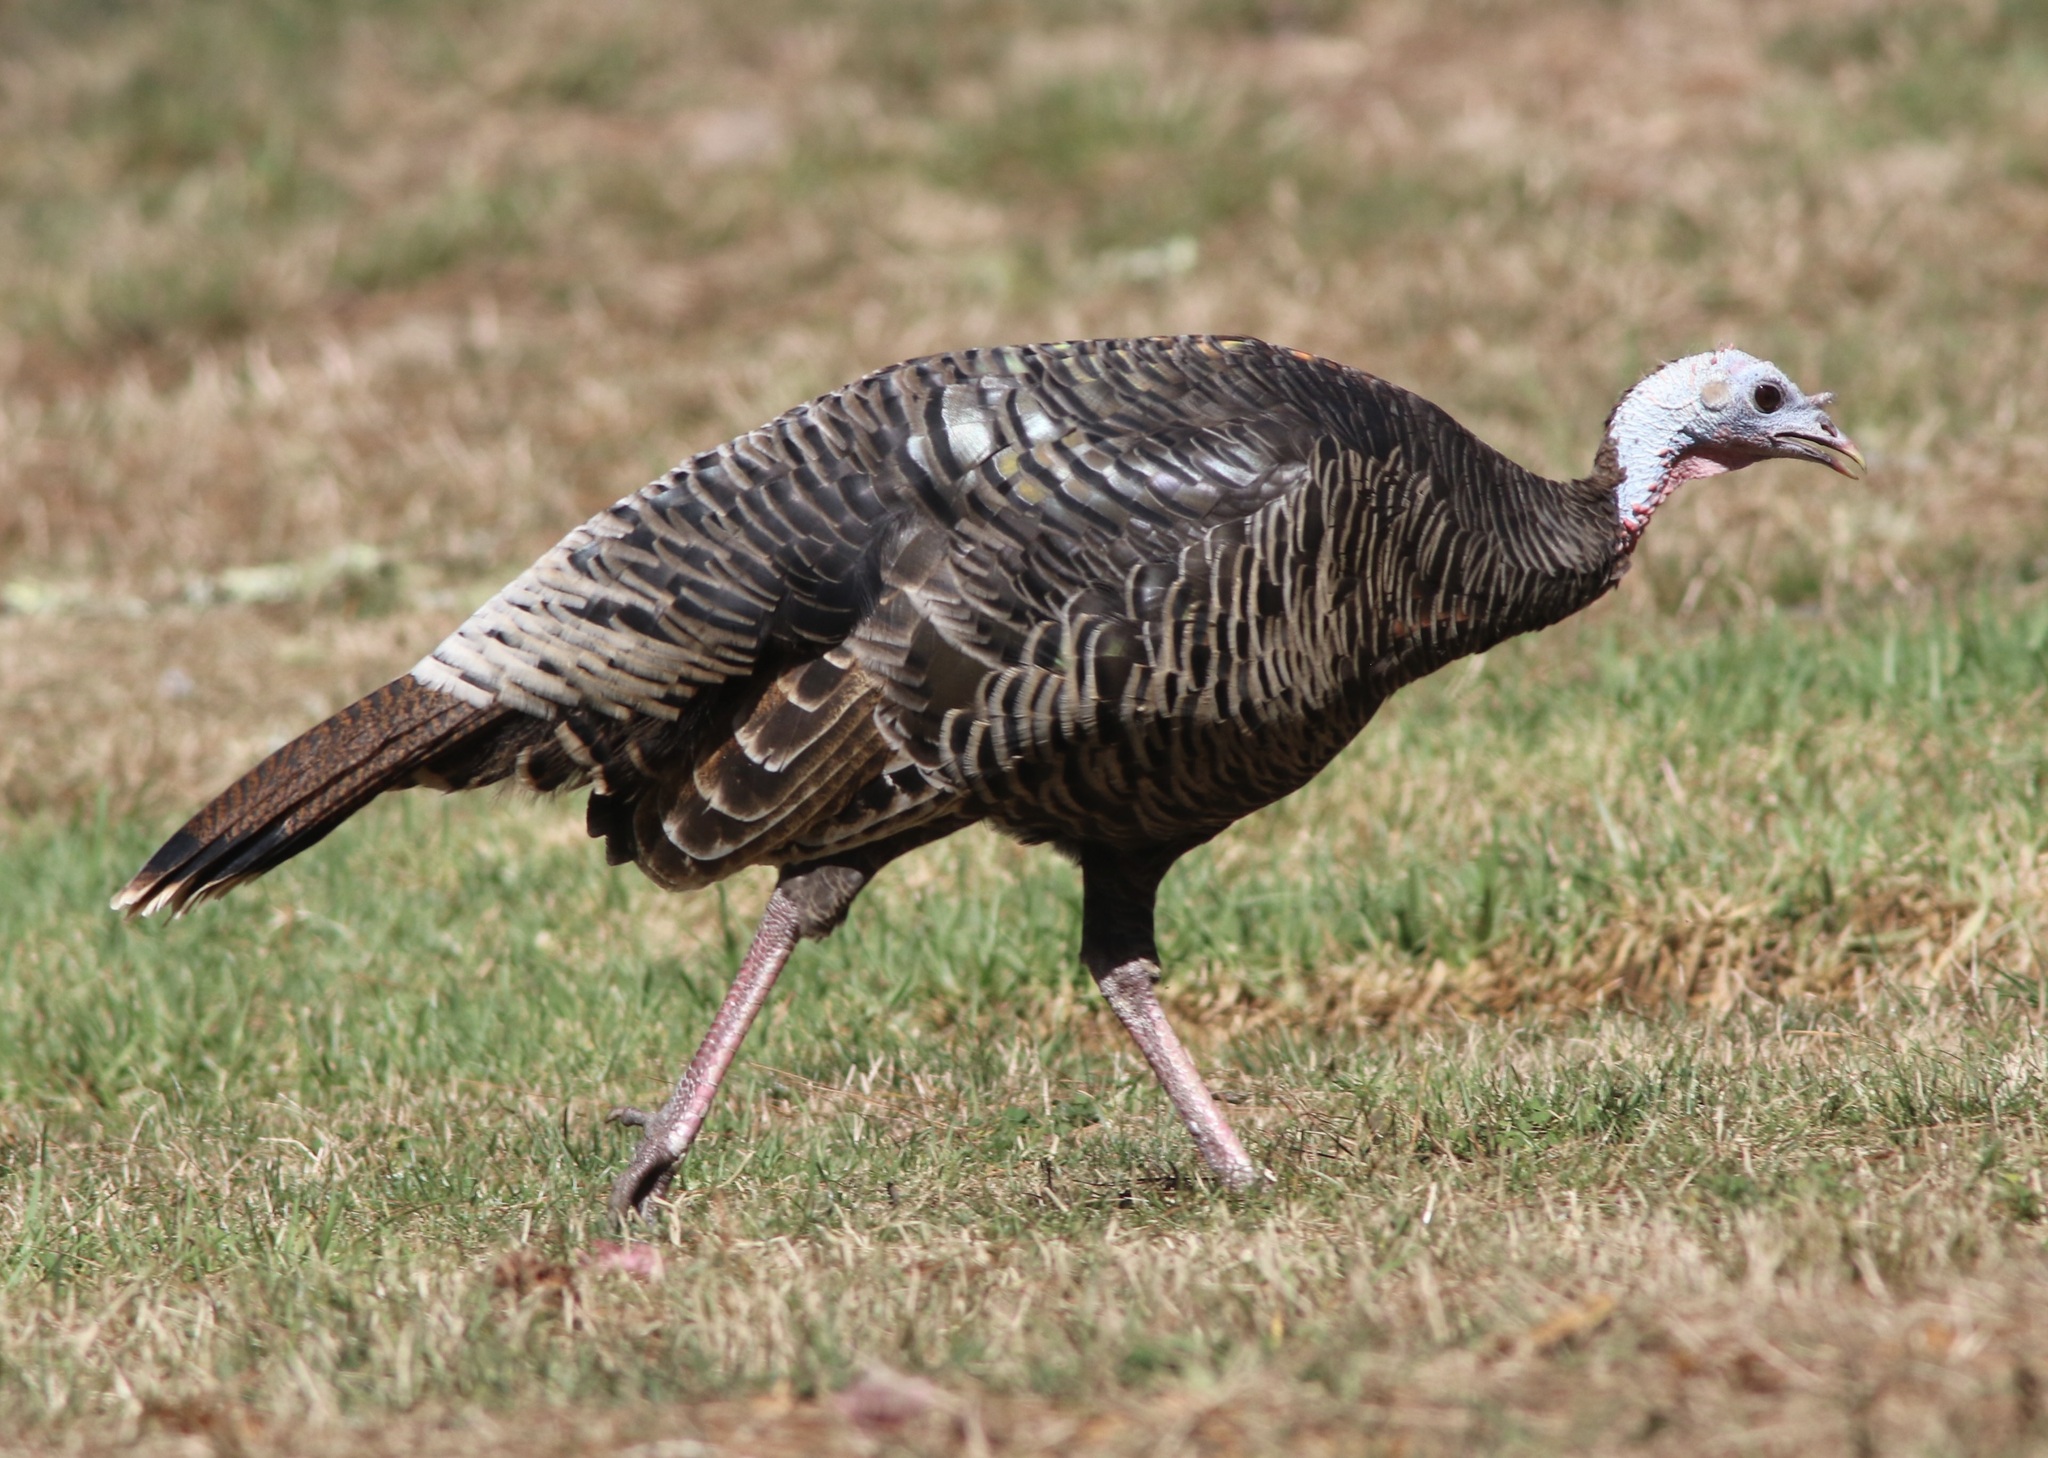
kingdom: Animalia
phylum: Chordata
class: Aves
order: Galliformes
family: Phasianidae
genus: Meleagris
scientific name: Meleagris gallopavo
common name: Wild turkey
